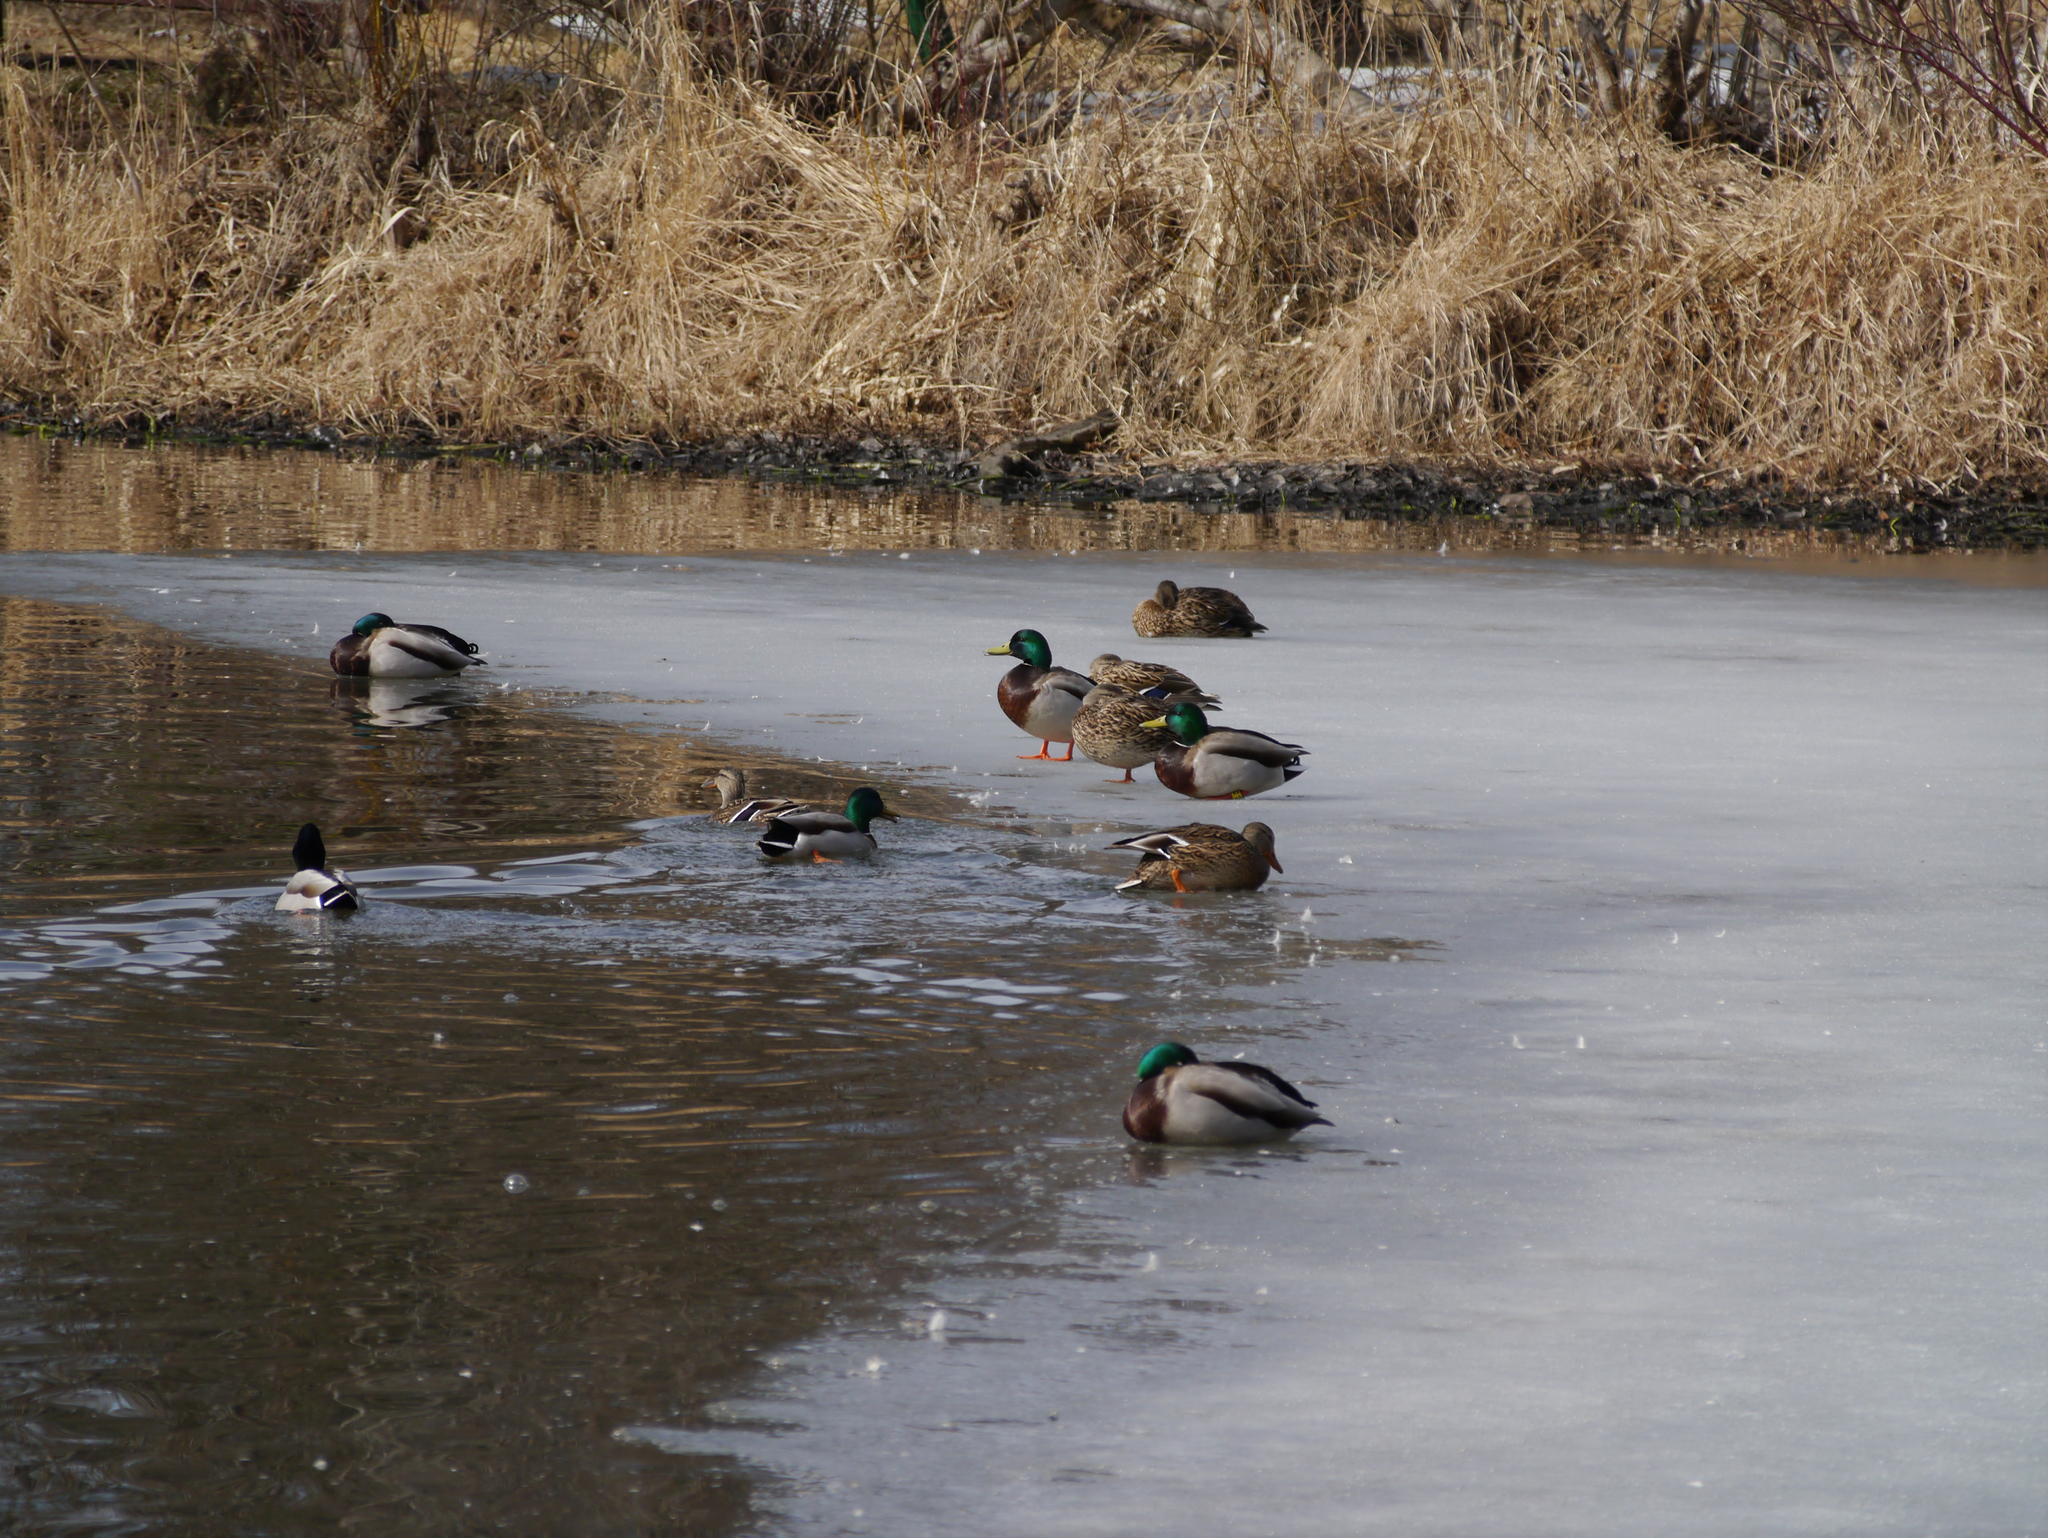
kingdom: Animalia
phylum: Chordata
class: Aves
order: Anseriformes
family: Anatidae
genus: Anas
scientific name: Anas platyrhynchos
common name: Mallard
